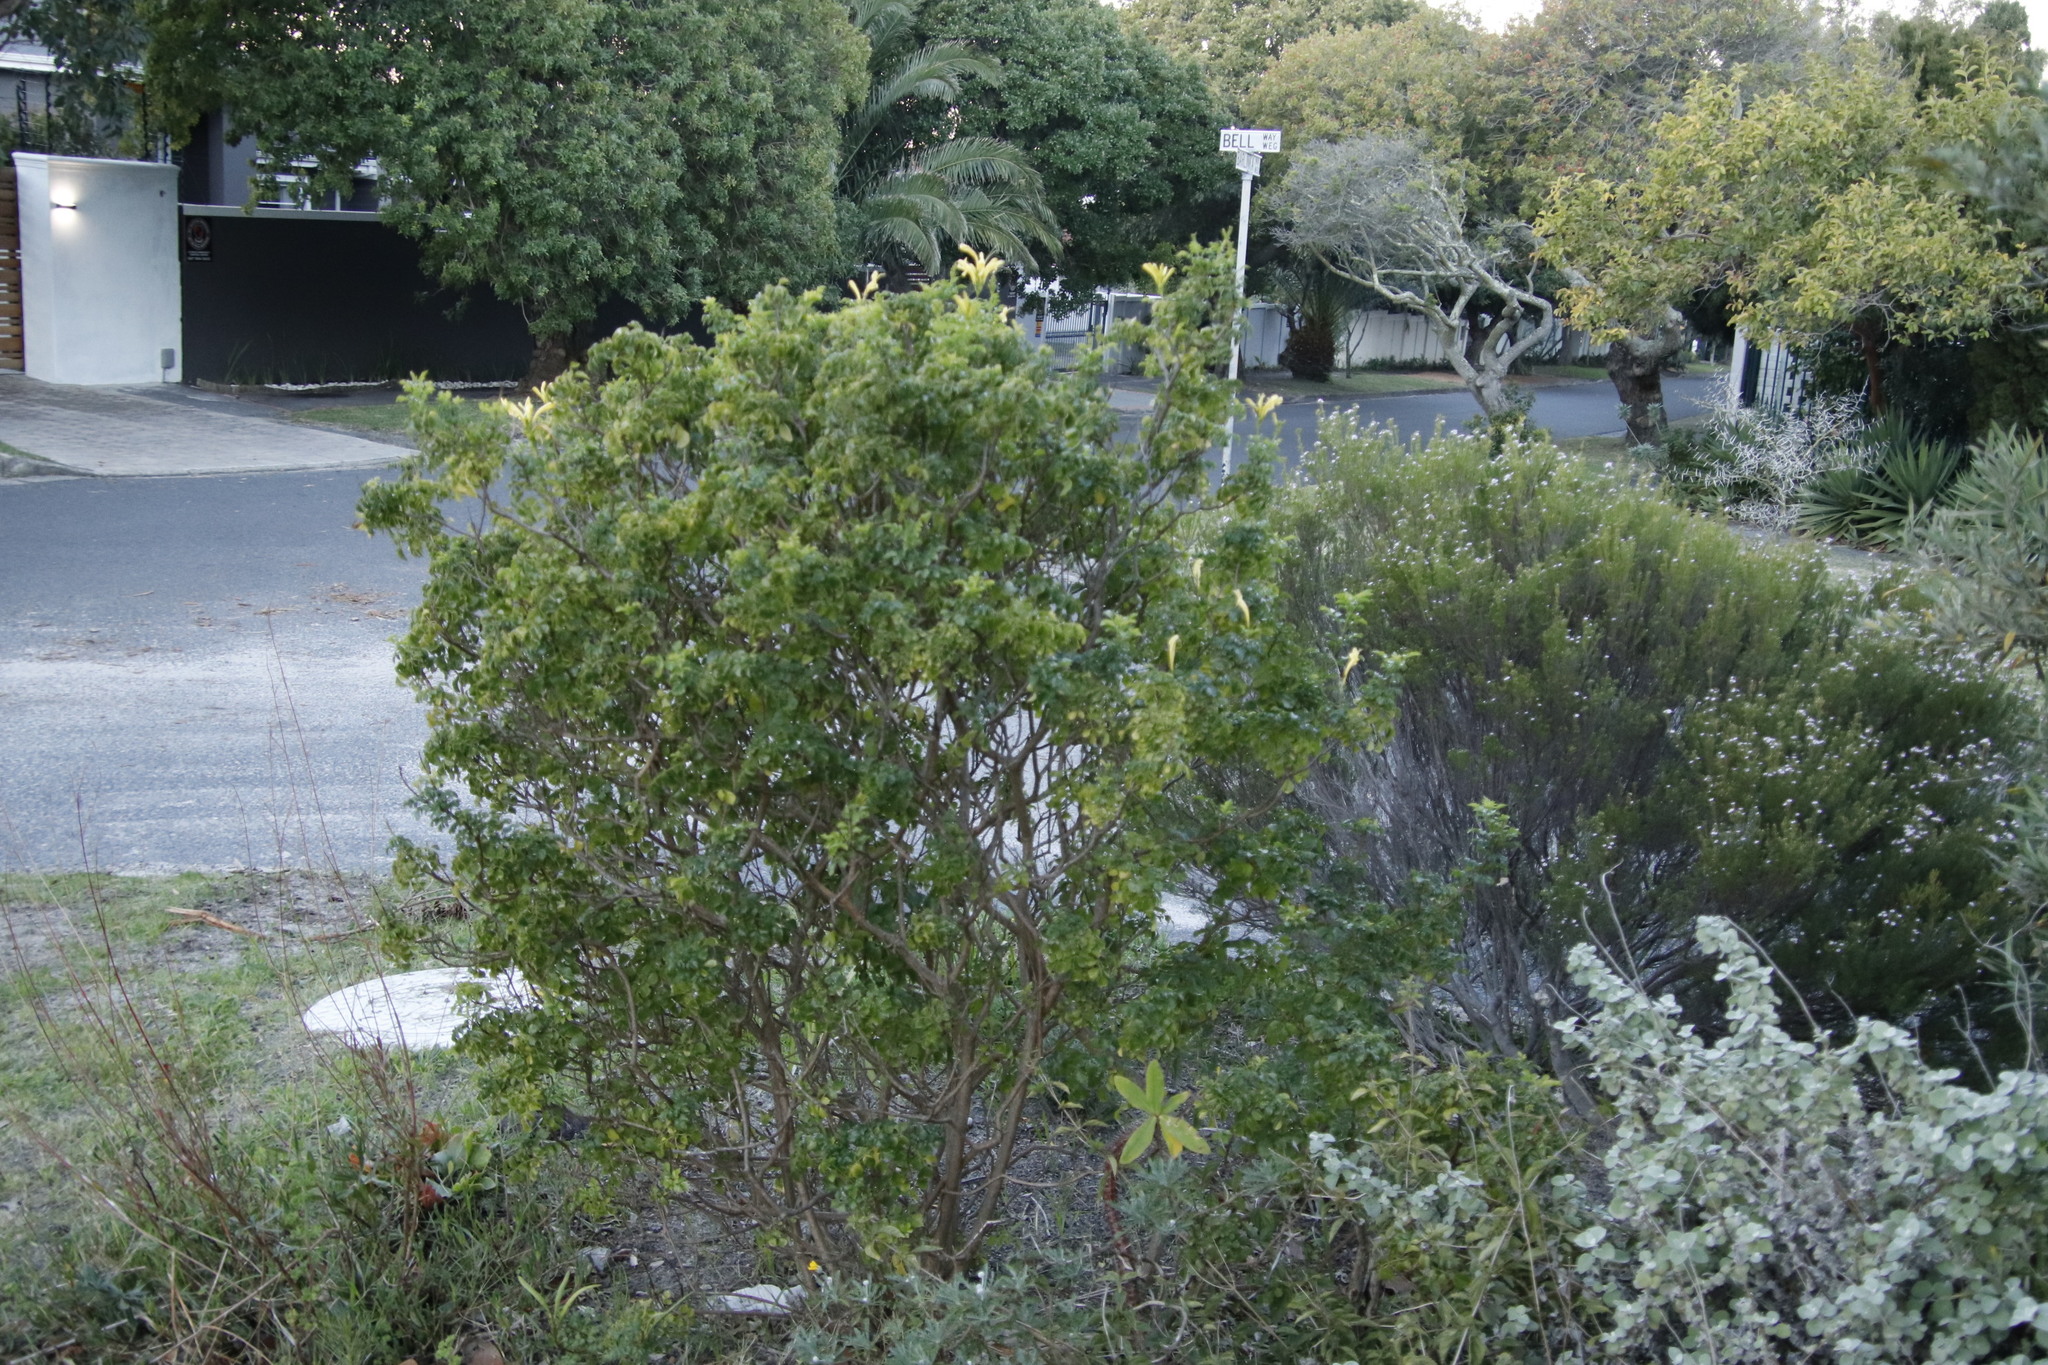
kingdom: Plantae
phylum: Tracheophyta
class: Magnoliopsida
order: Lamiales
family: Bignoniaceae
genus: Tecomaria
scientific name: Tecomaria capensis
